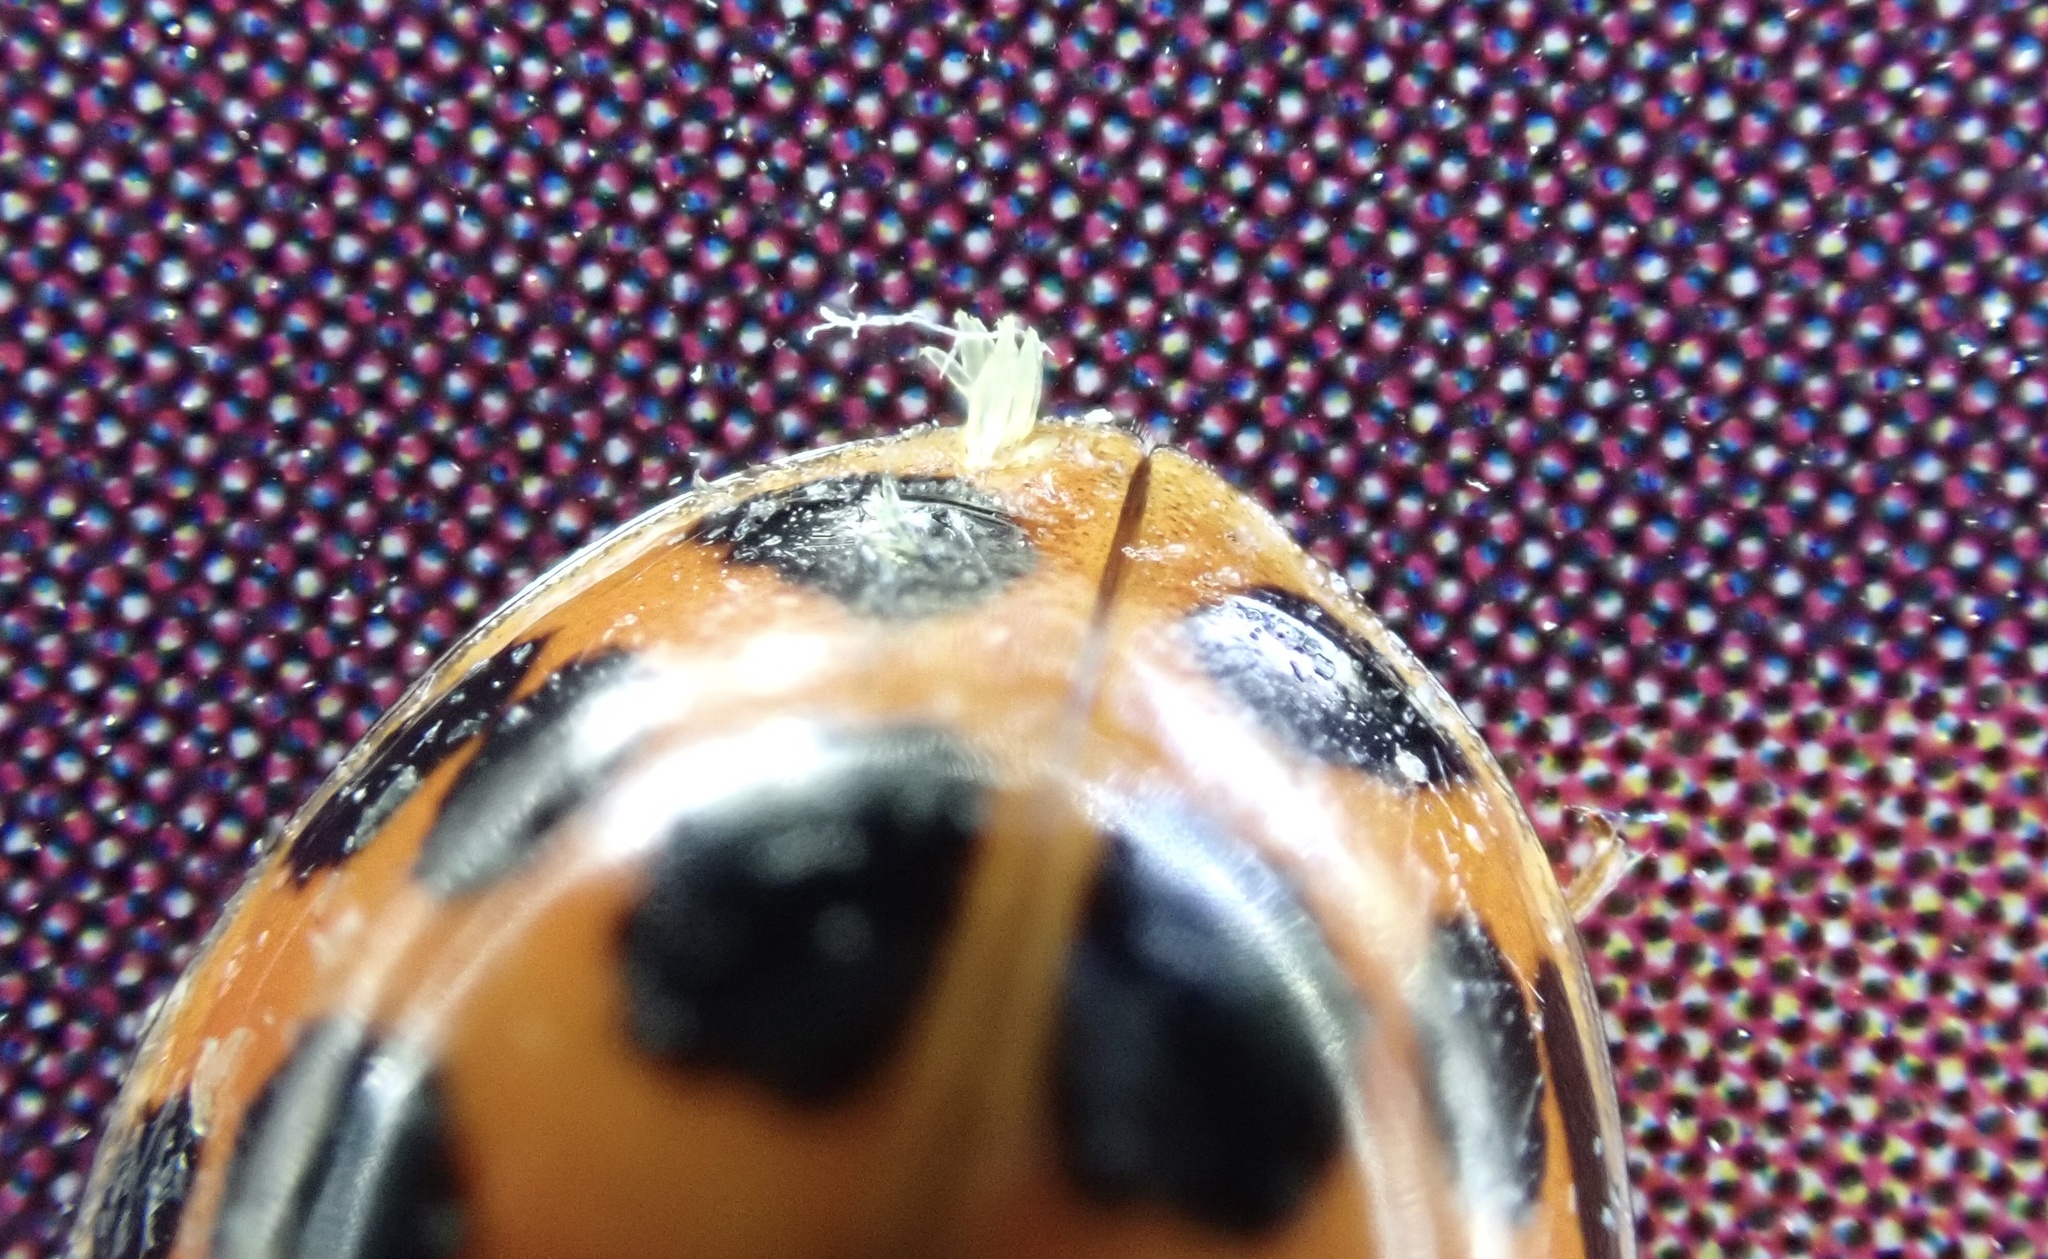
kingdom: Fungi
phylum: Ascomycota
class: Laboulbeniomycetes
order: Laboulbeniales
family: Laboulbeniaceae
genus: Hesperomyces
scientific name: Hesperomyces harmoniae
